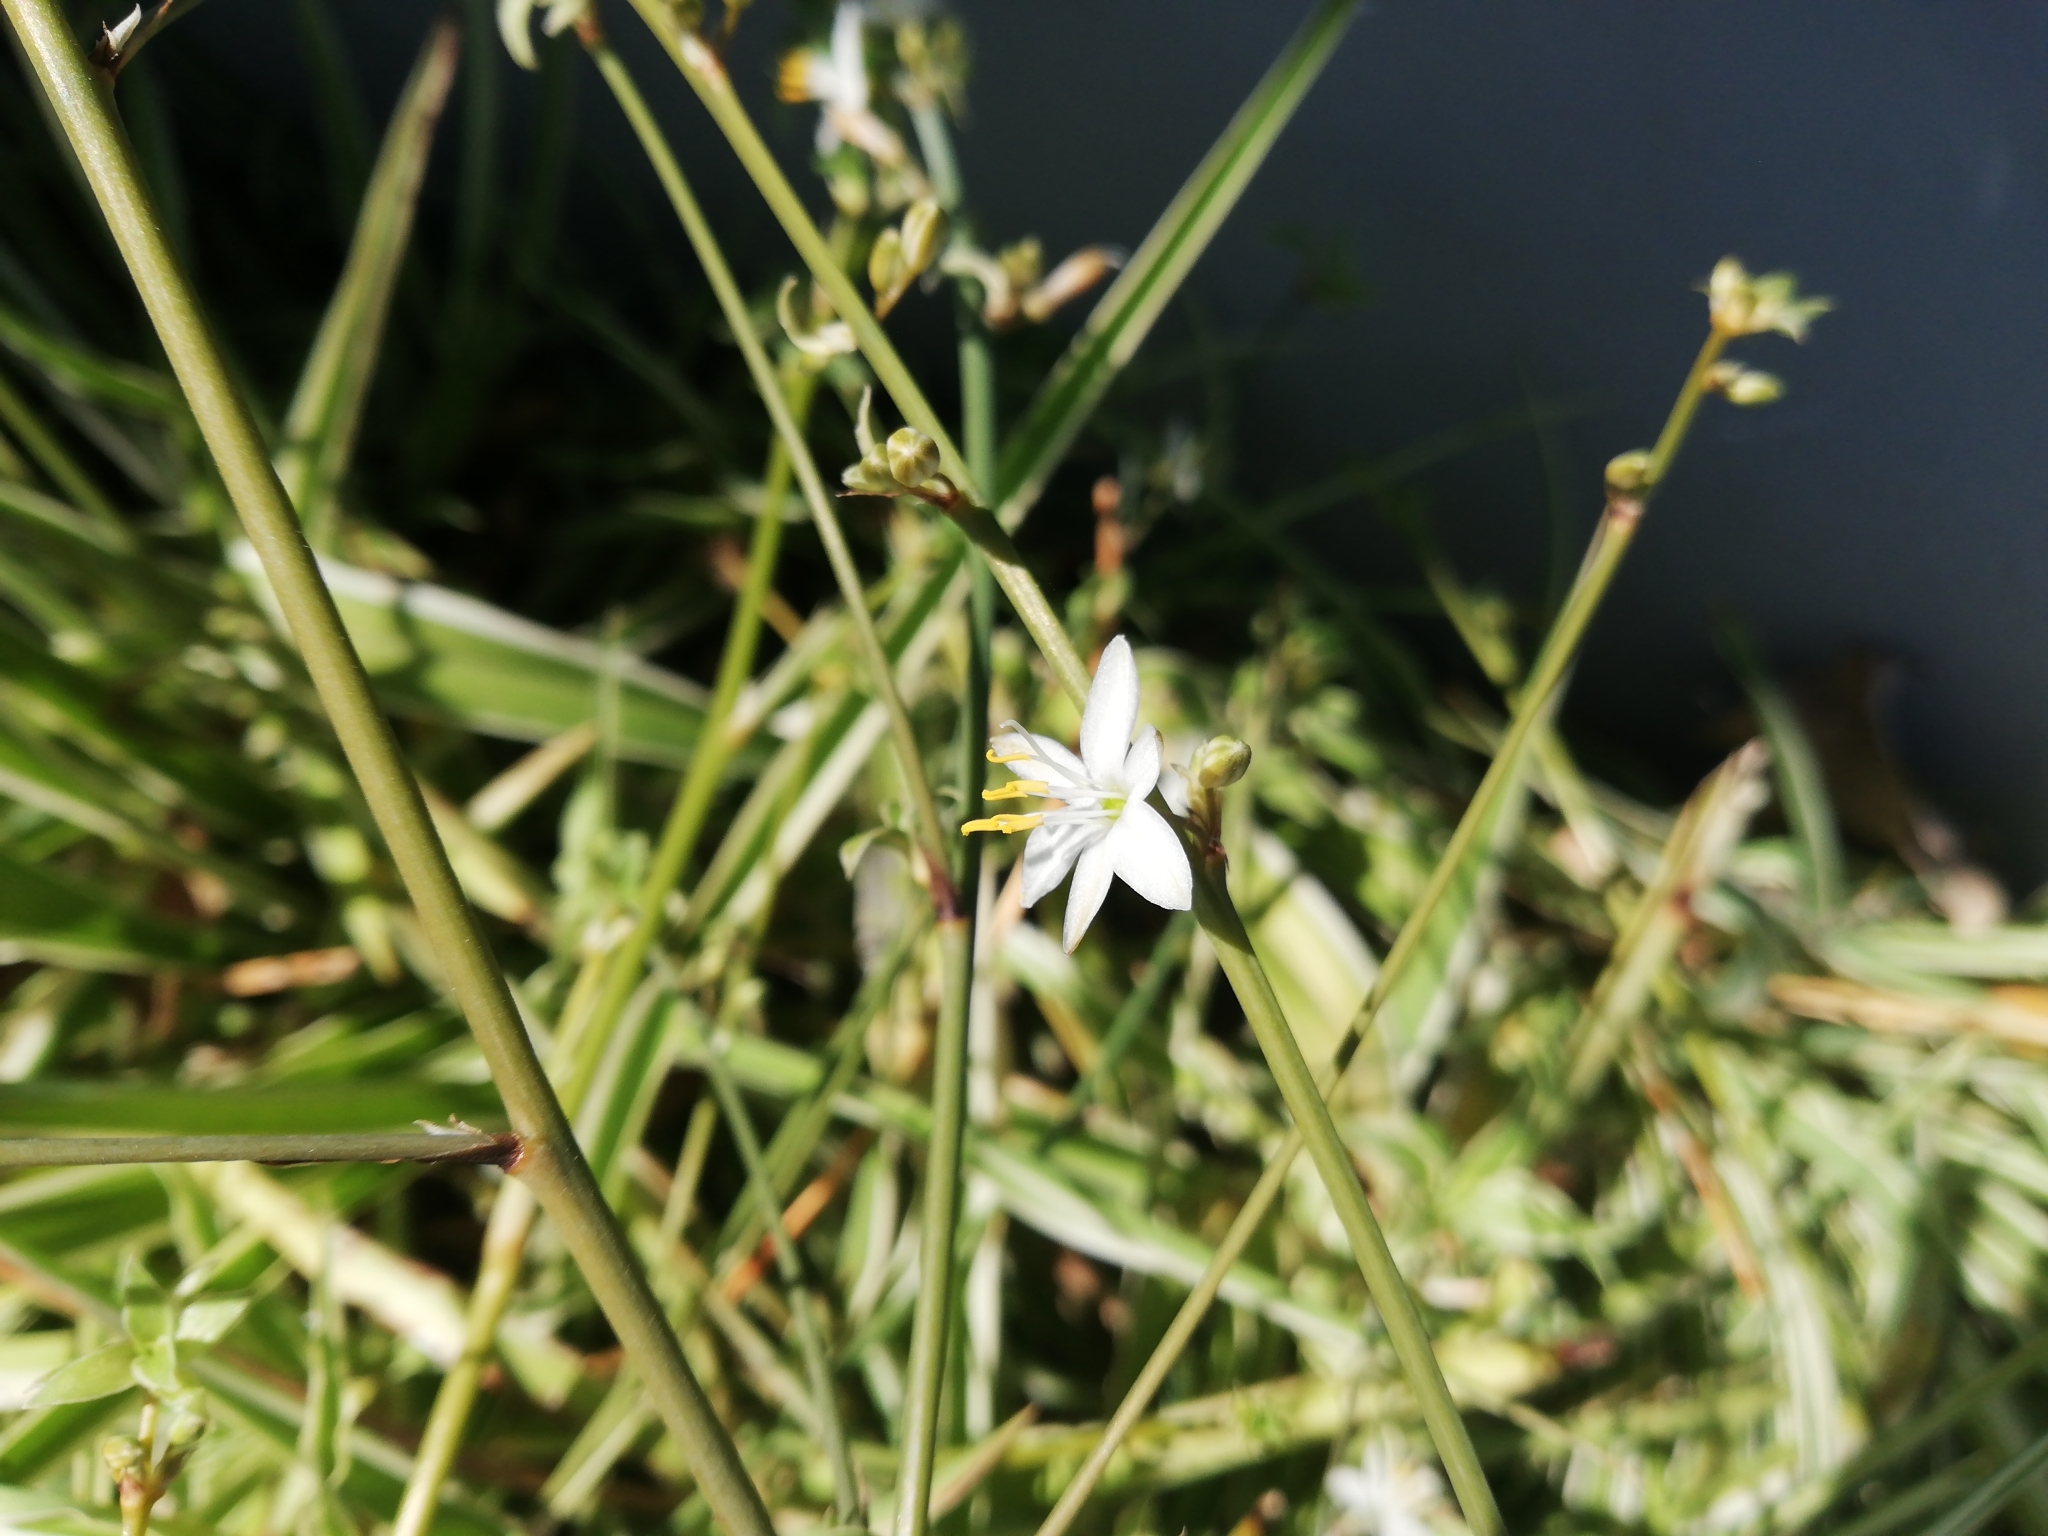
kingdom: Plantae
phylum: Tracheophyta
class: Liliopsida
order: Asparagales
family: Asparagaceae
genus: Chlorophytum
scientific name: Chlorophytum comosum
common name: Spider plant
